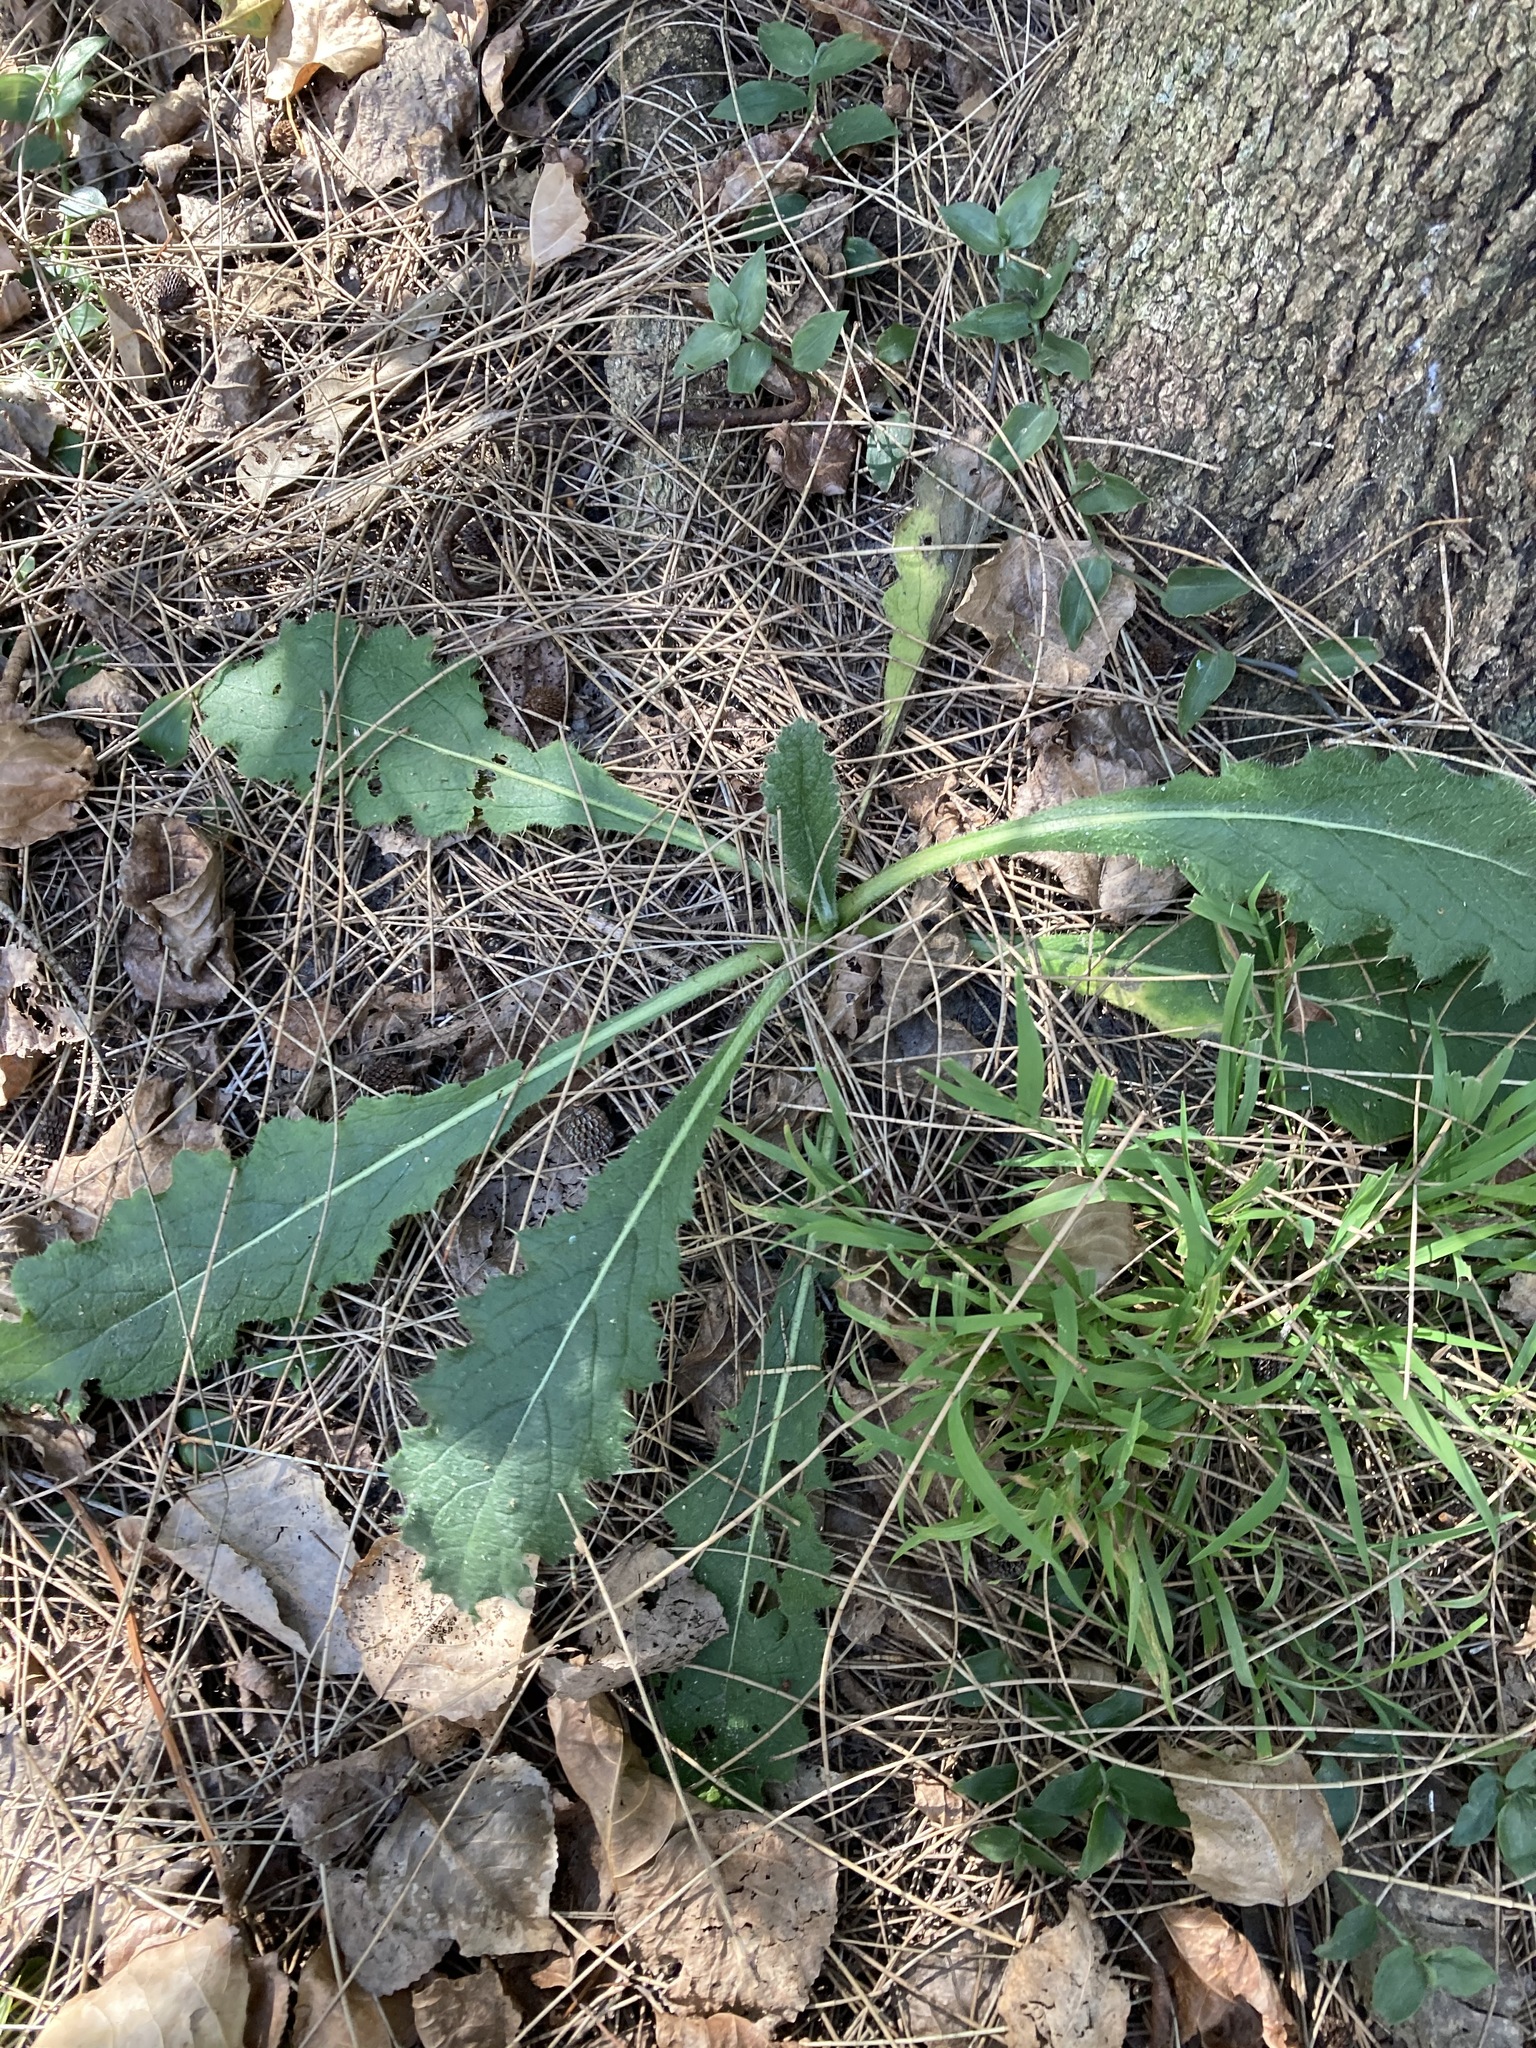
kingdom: Plantae
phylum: Tracheophyta
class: Magnoliopsida
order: Asterales
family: Asteraceae
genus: Cirsium
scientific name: Cirsium vulgare
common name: Bull thistle
